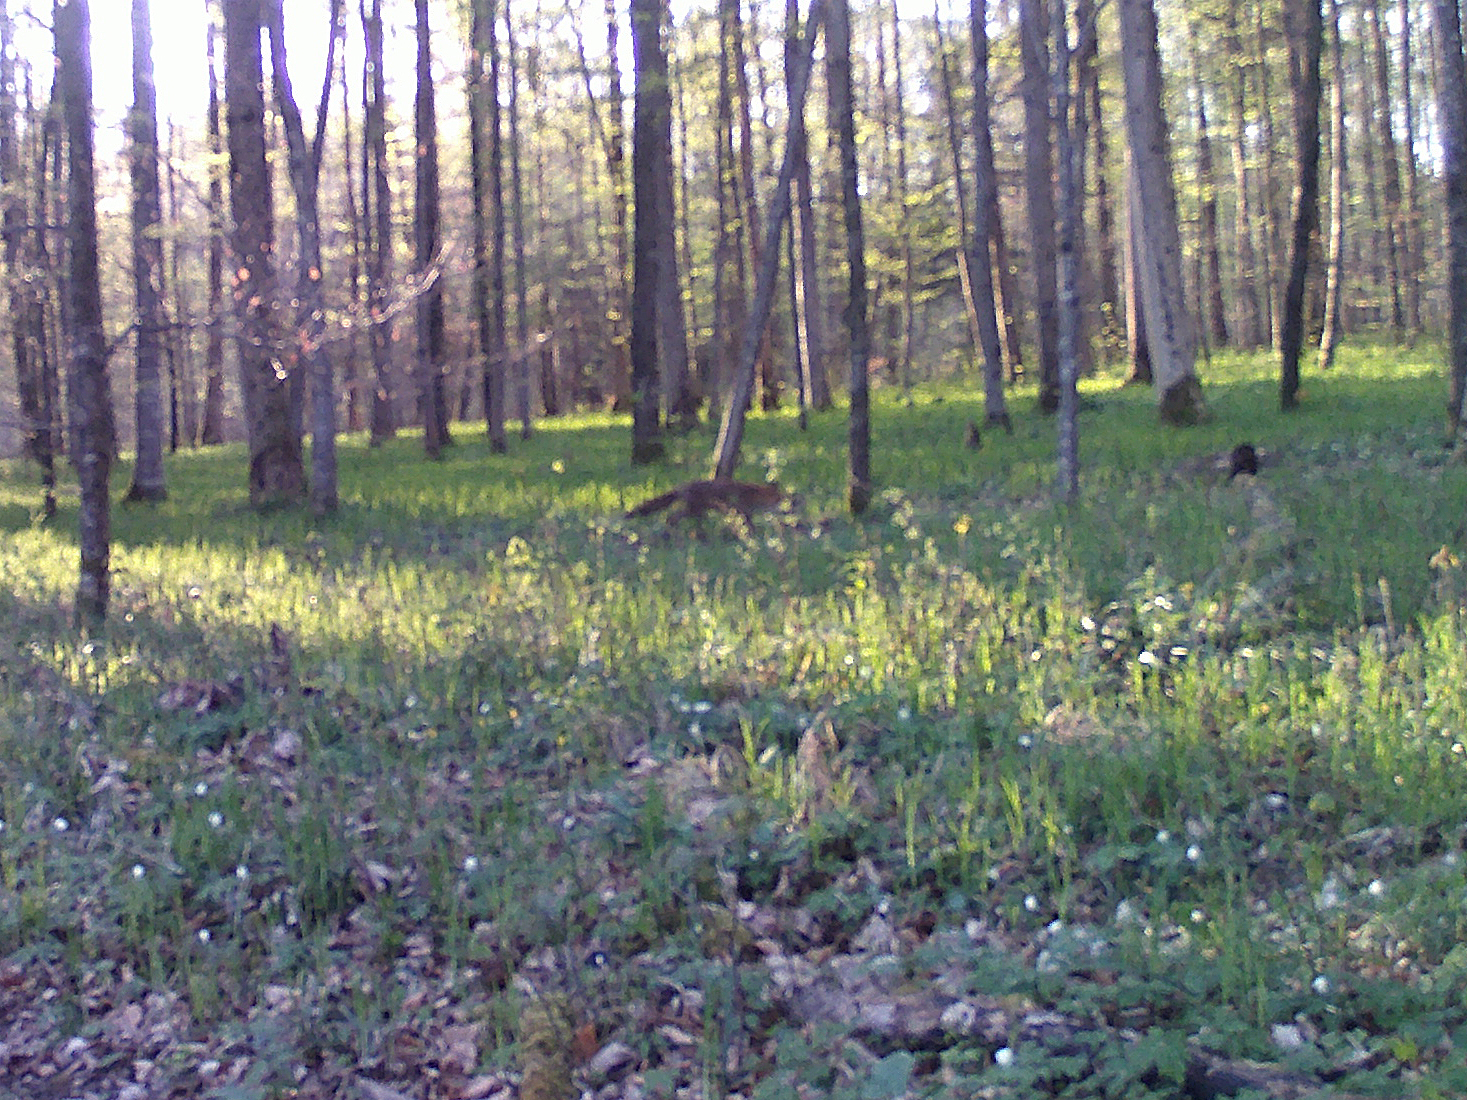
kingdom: Animalia
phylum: Chordata
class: Mammalia
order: Carnivora
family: Canidae
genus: Vulpes
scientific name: Vulpes vulpes
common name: Red fox
